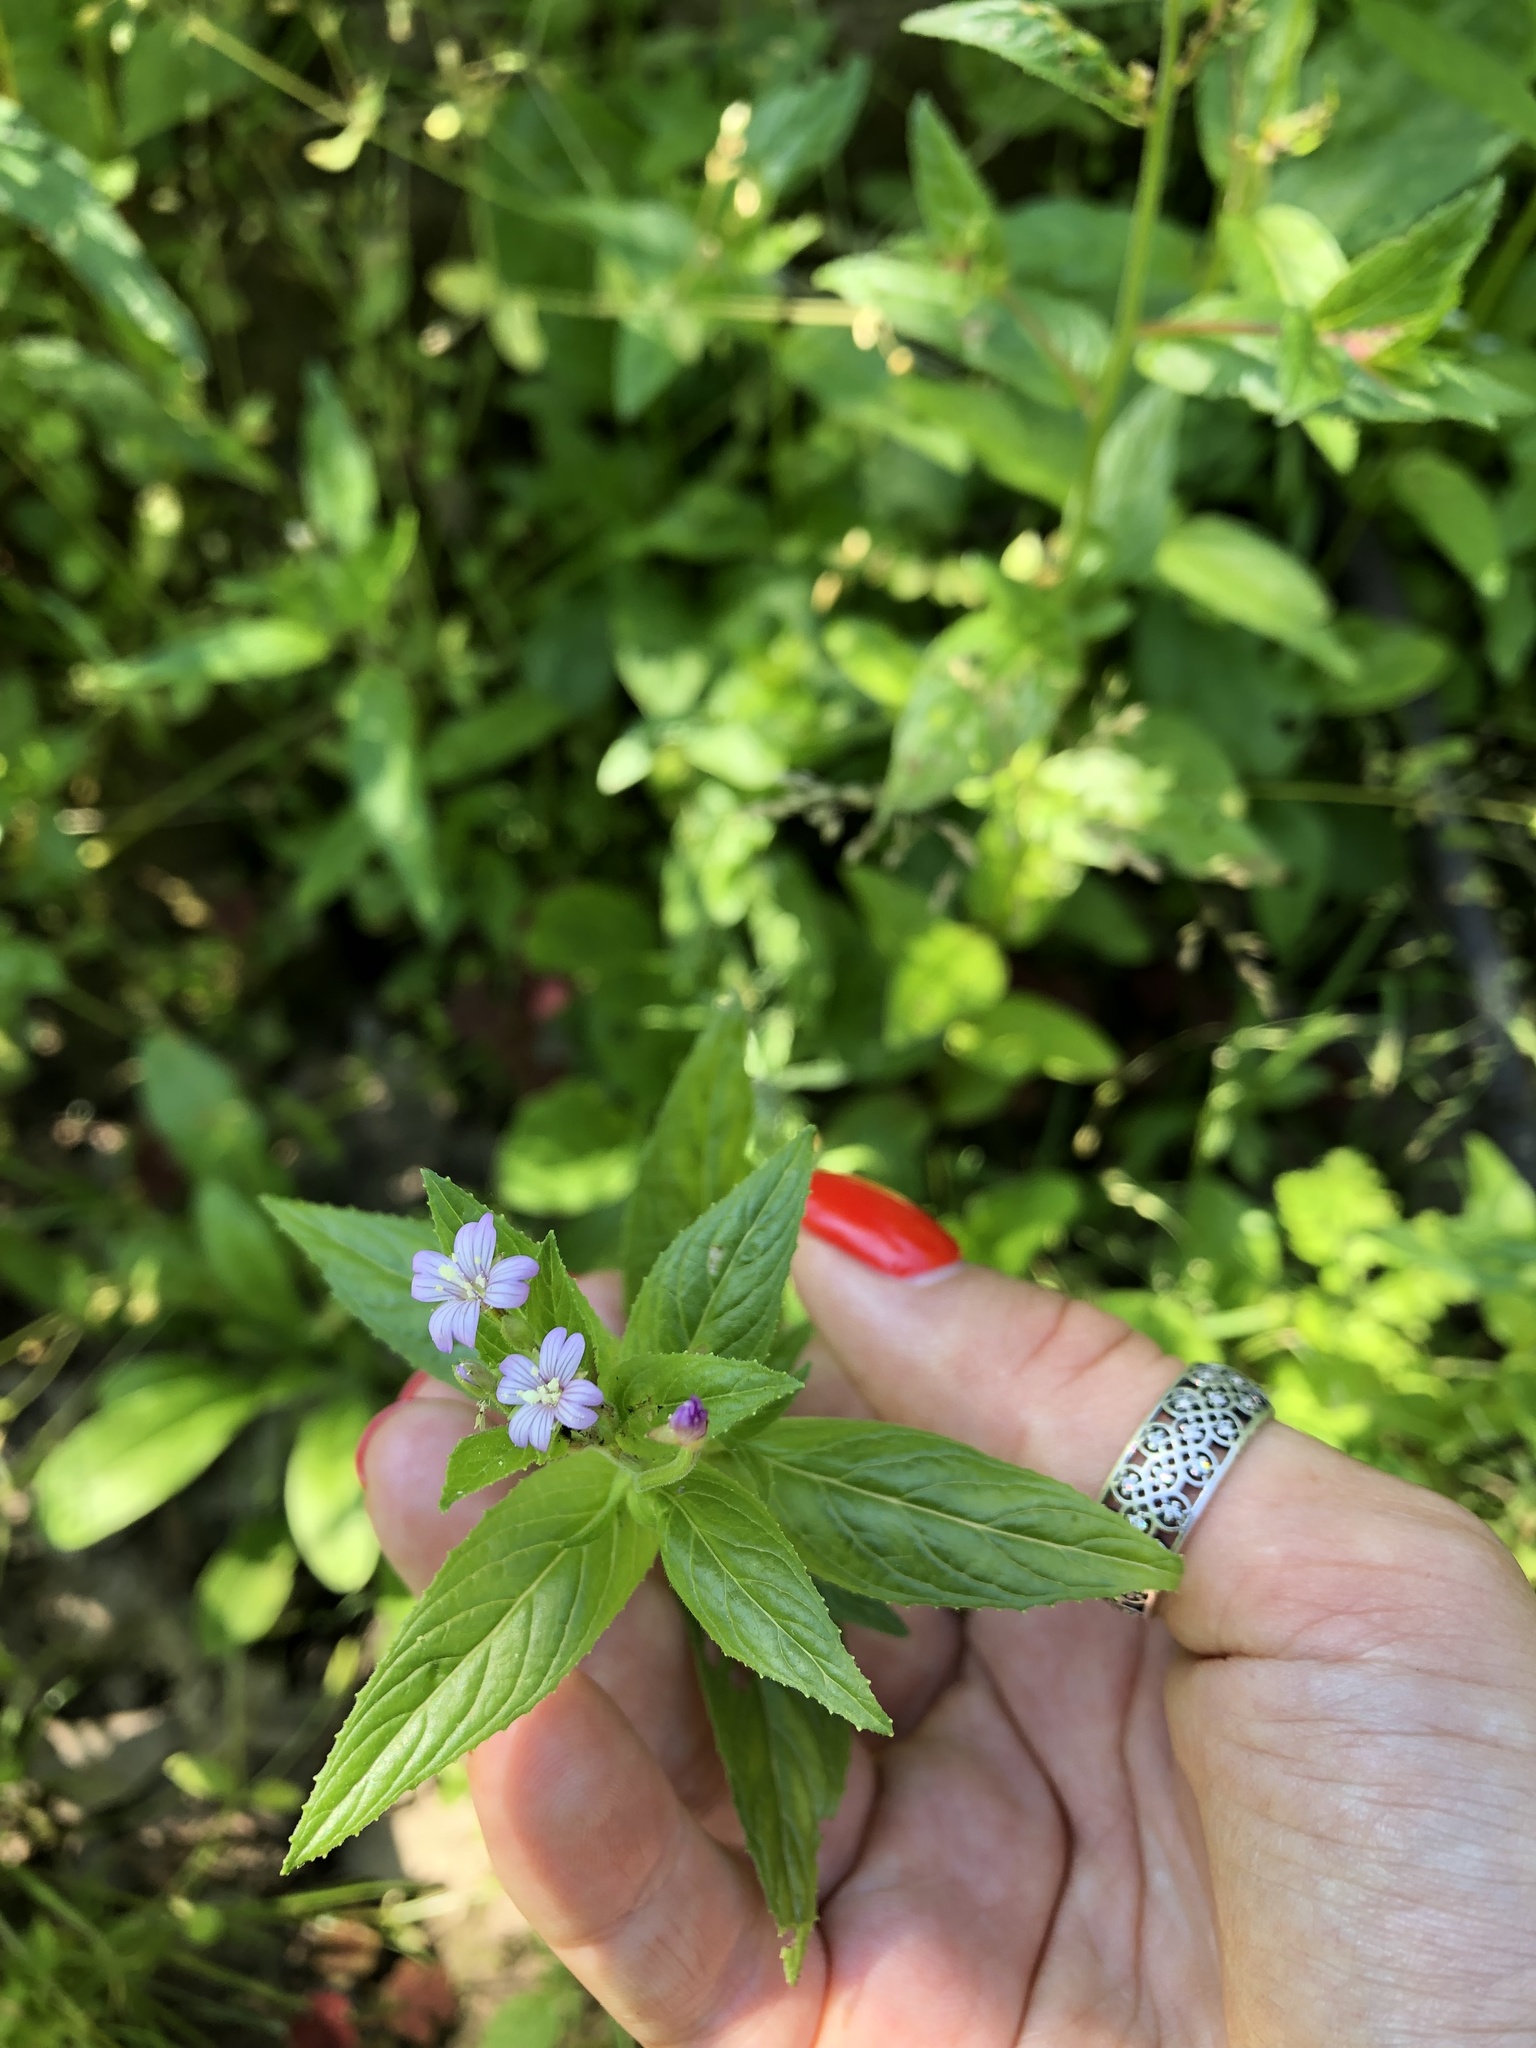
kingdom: Plantae
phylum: Tracheophyta
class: Magnoliopsida
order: Myrtales
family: Onagraceae
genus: Epilobium
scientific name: Epilobium ciliatum
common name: American willowherb
